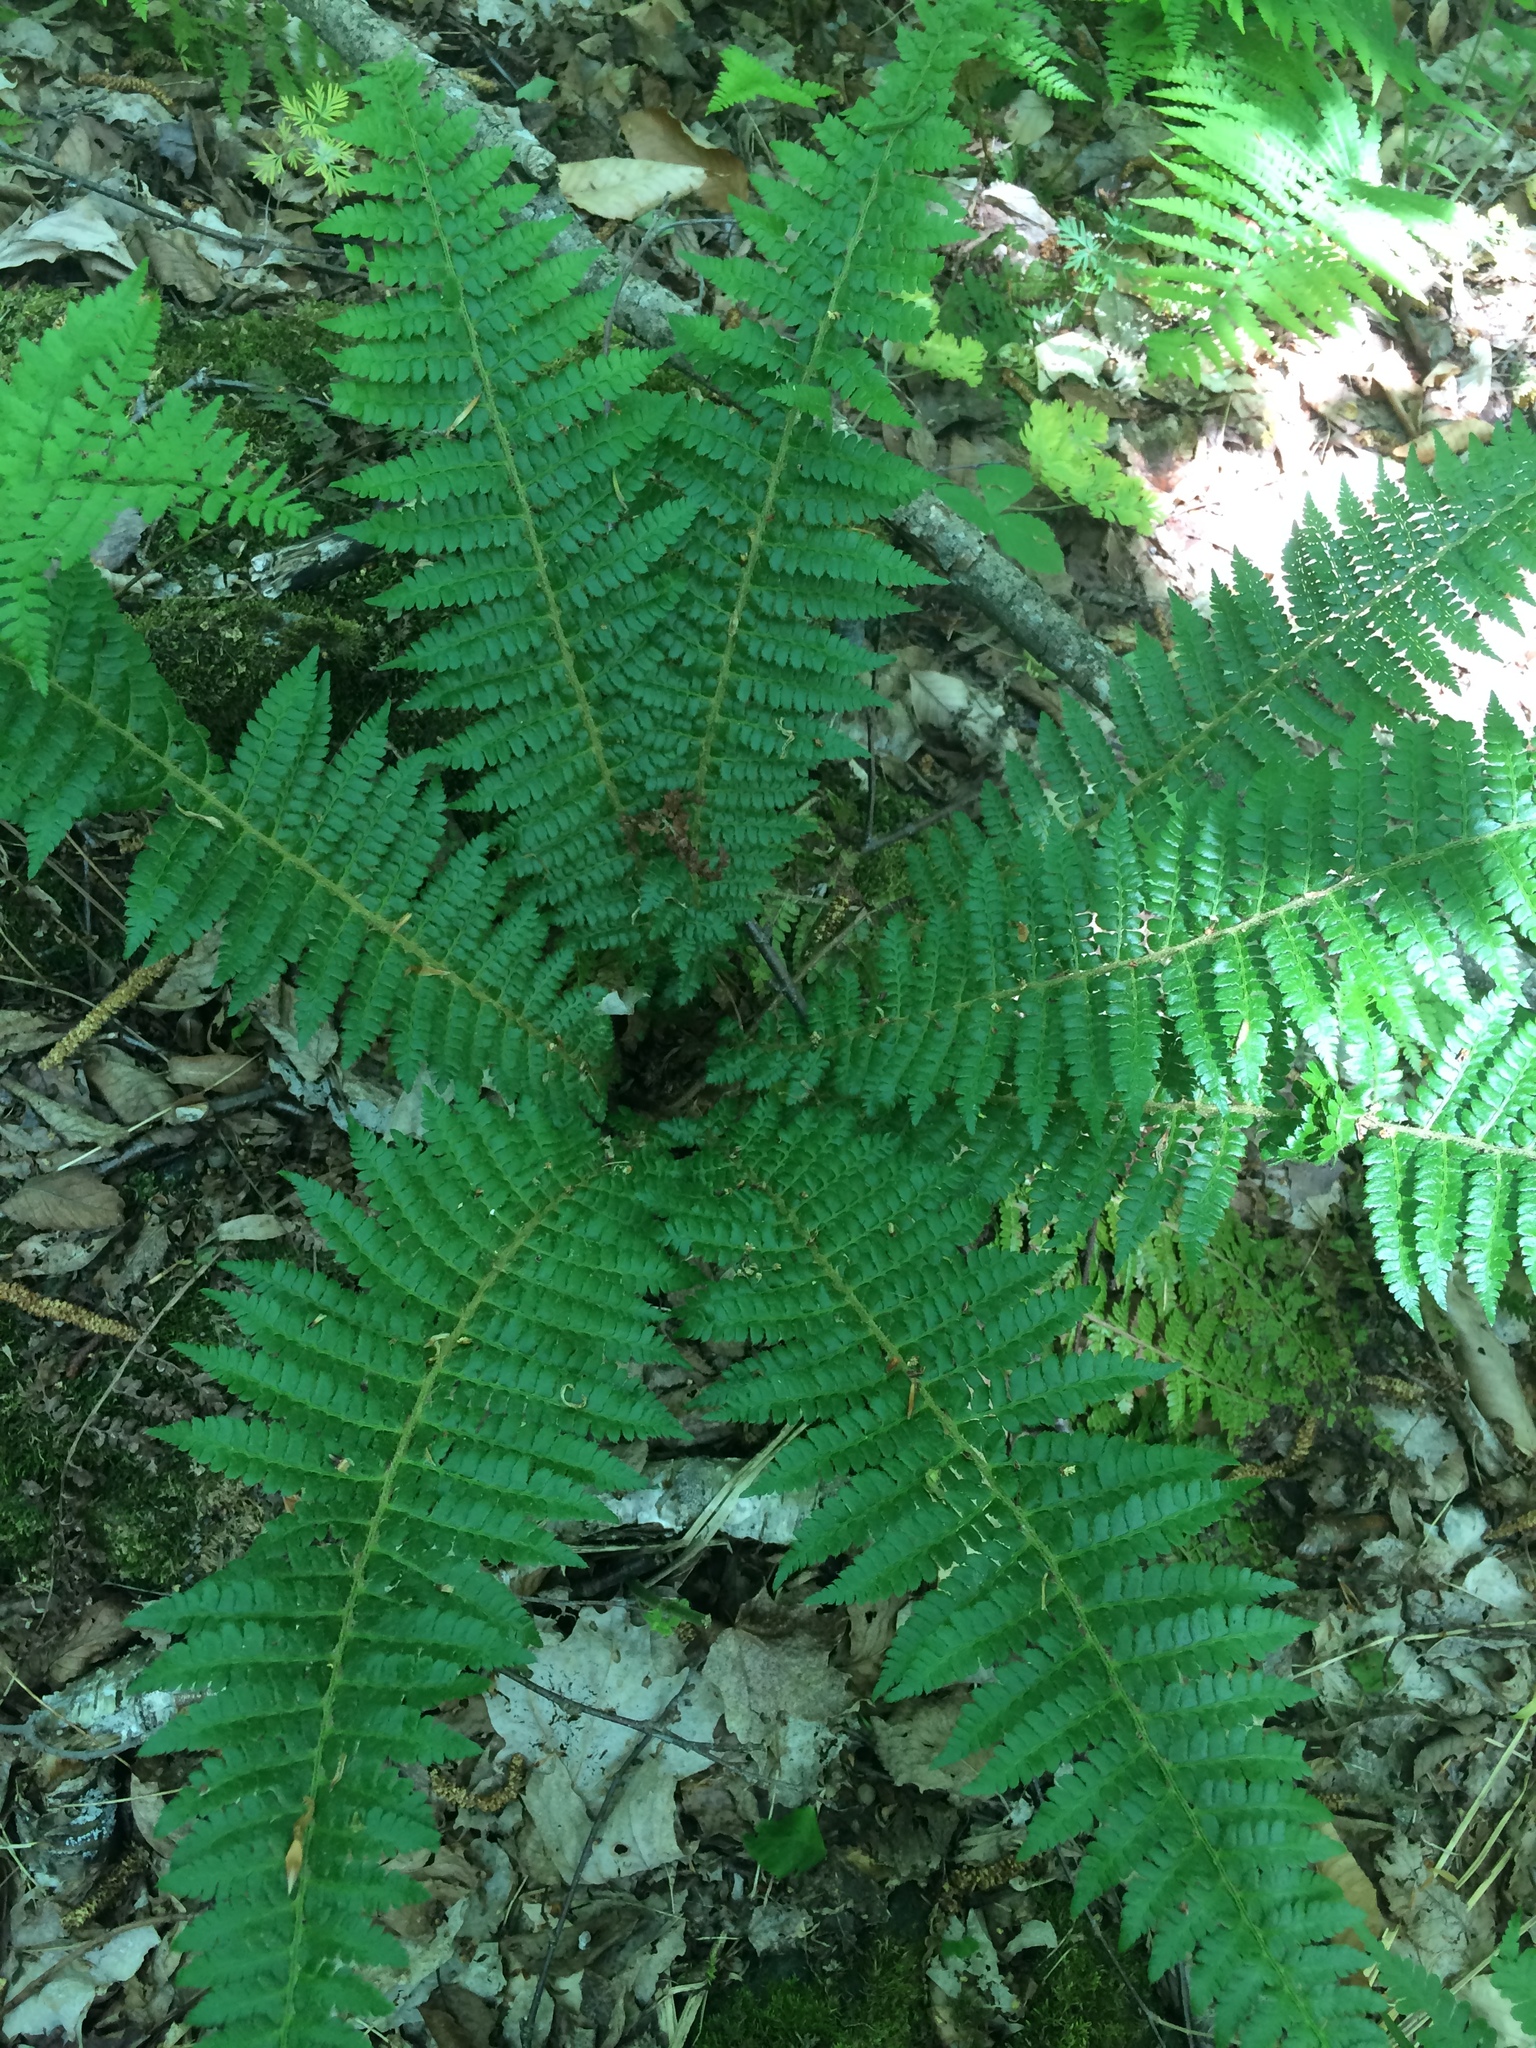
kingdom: Plantae
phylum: Tracheophyta
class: Polypodiopsida
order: Polypodiales
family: Dryopteridaceae
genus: Polystichum
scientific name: Polystichum braunii
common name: Braun's holly fern
